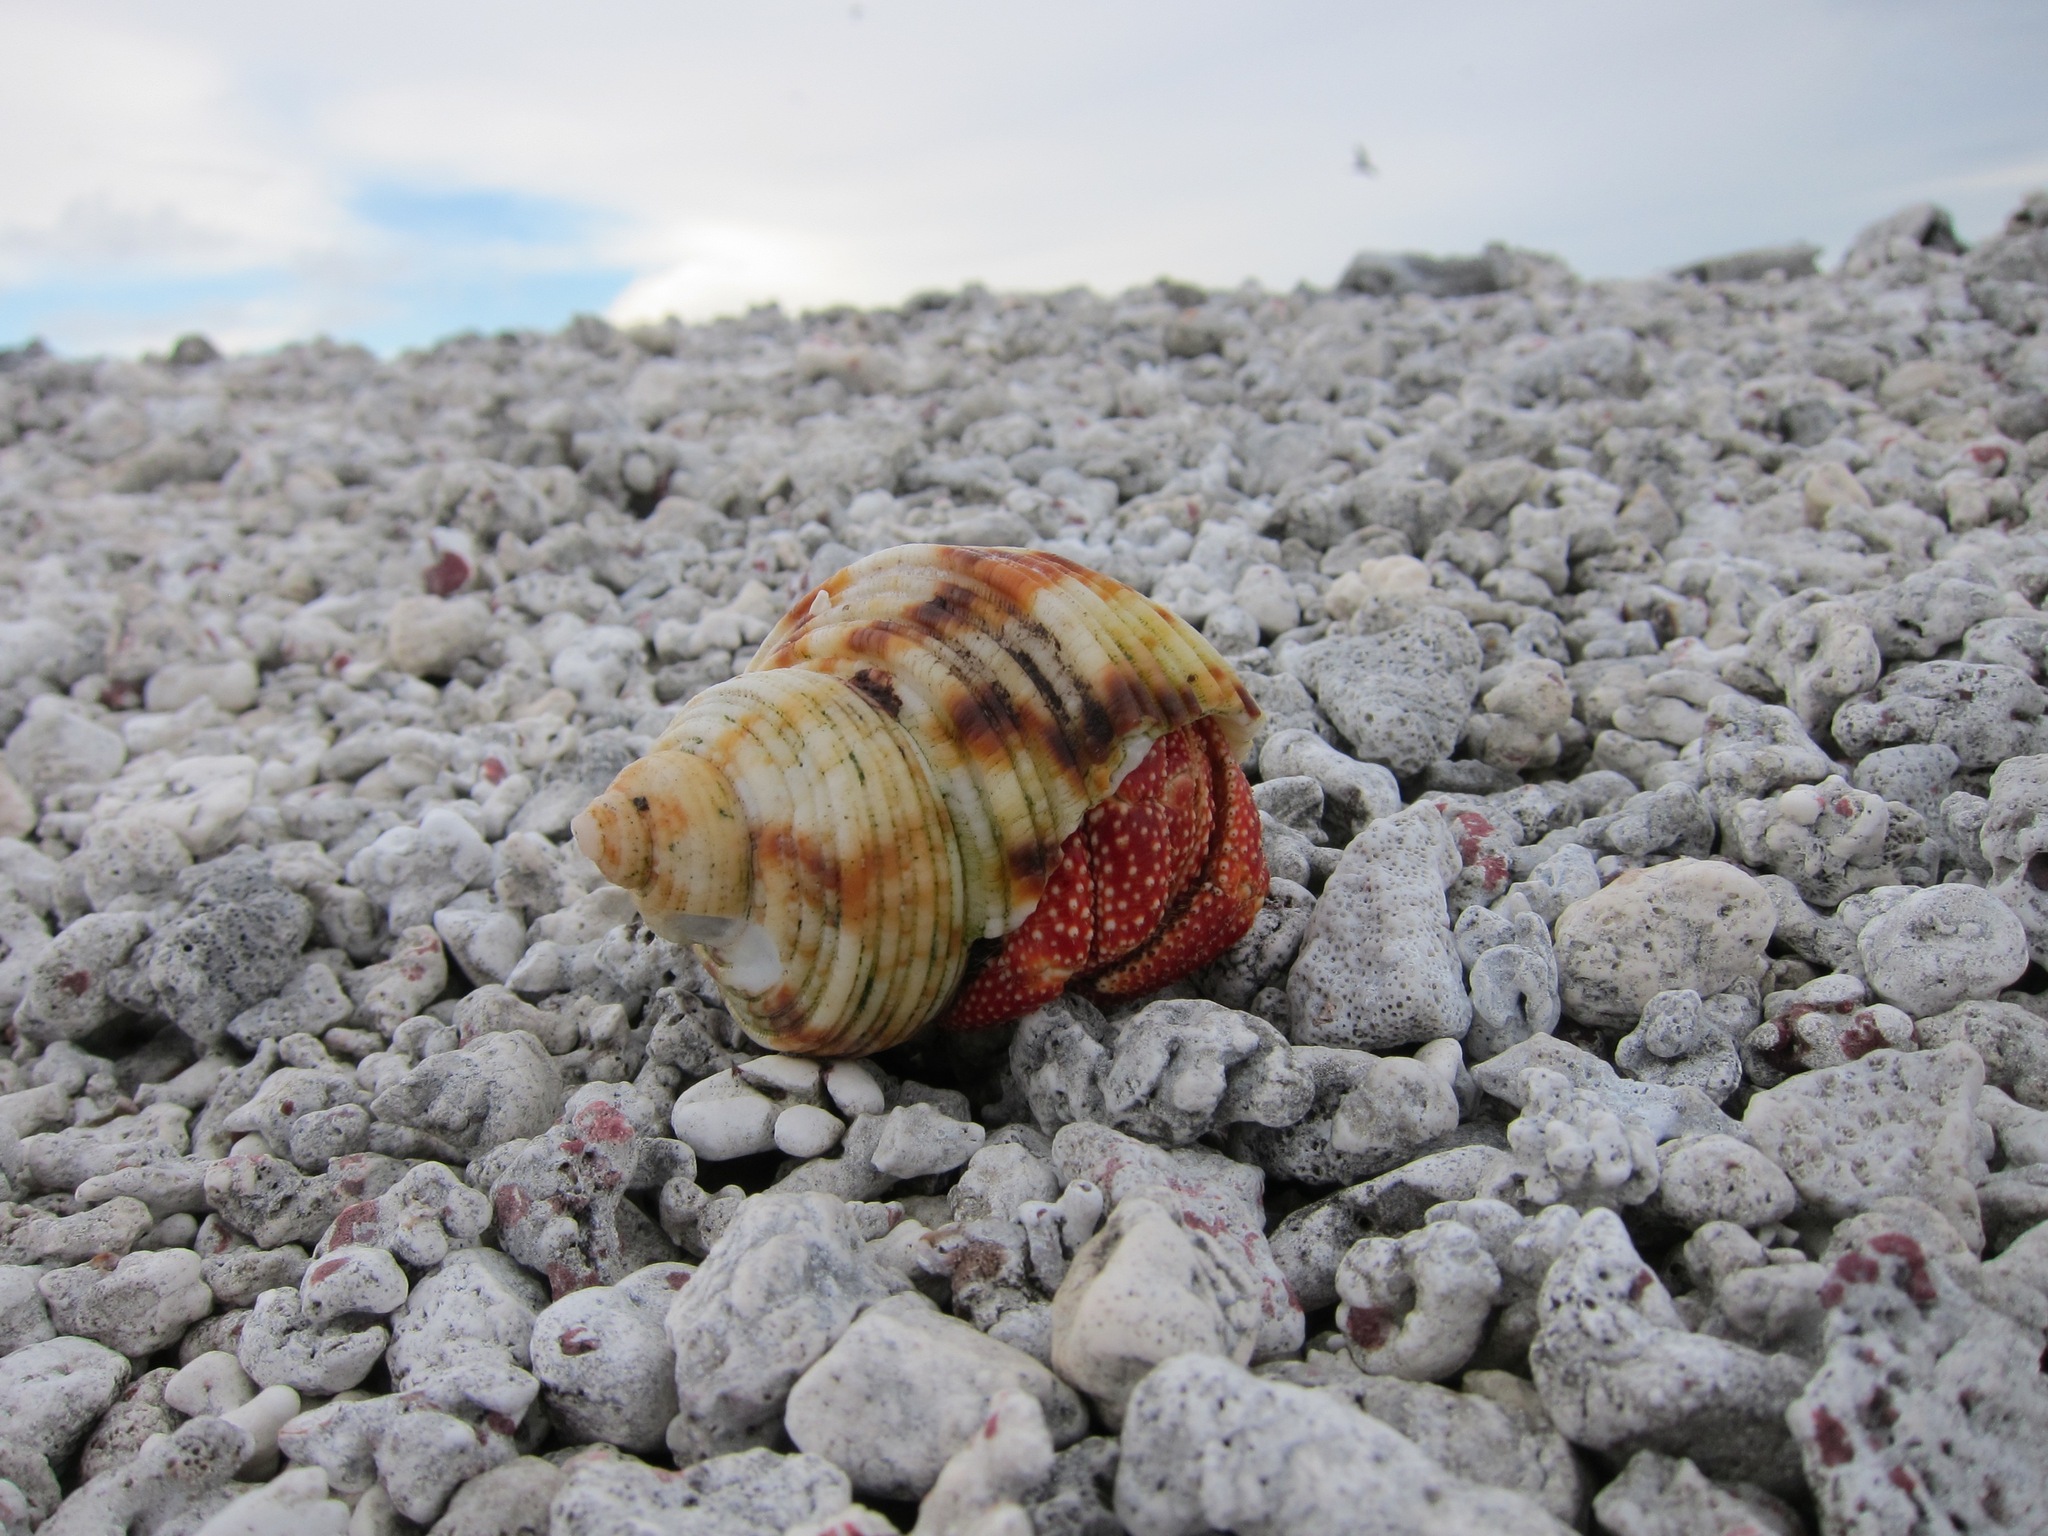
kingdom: Animalia
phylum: Arthropoda
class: Malacostraca
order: Decapoda
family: Coenobitidae
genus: Coenobita
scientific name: Coenobita perlatus
